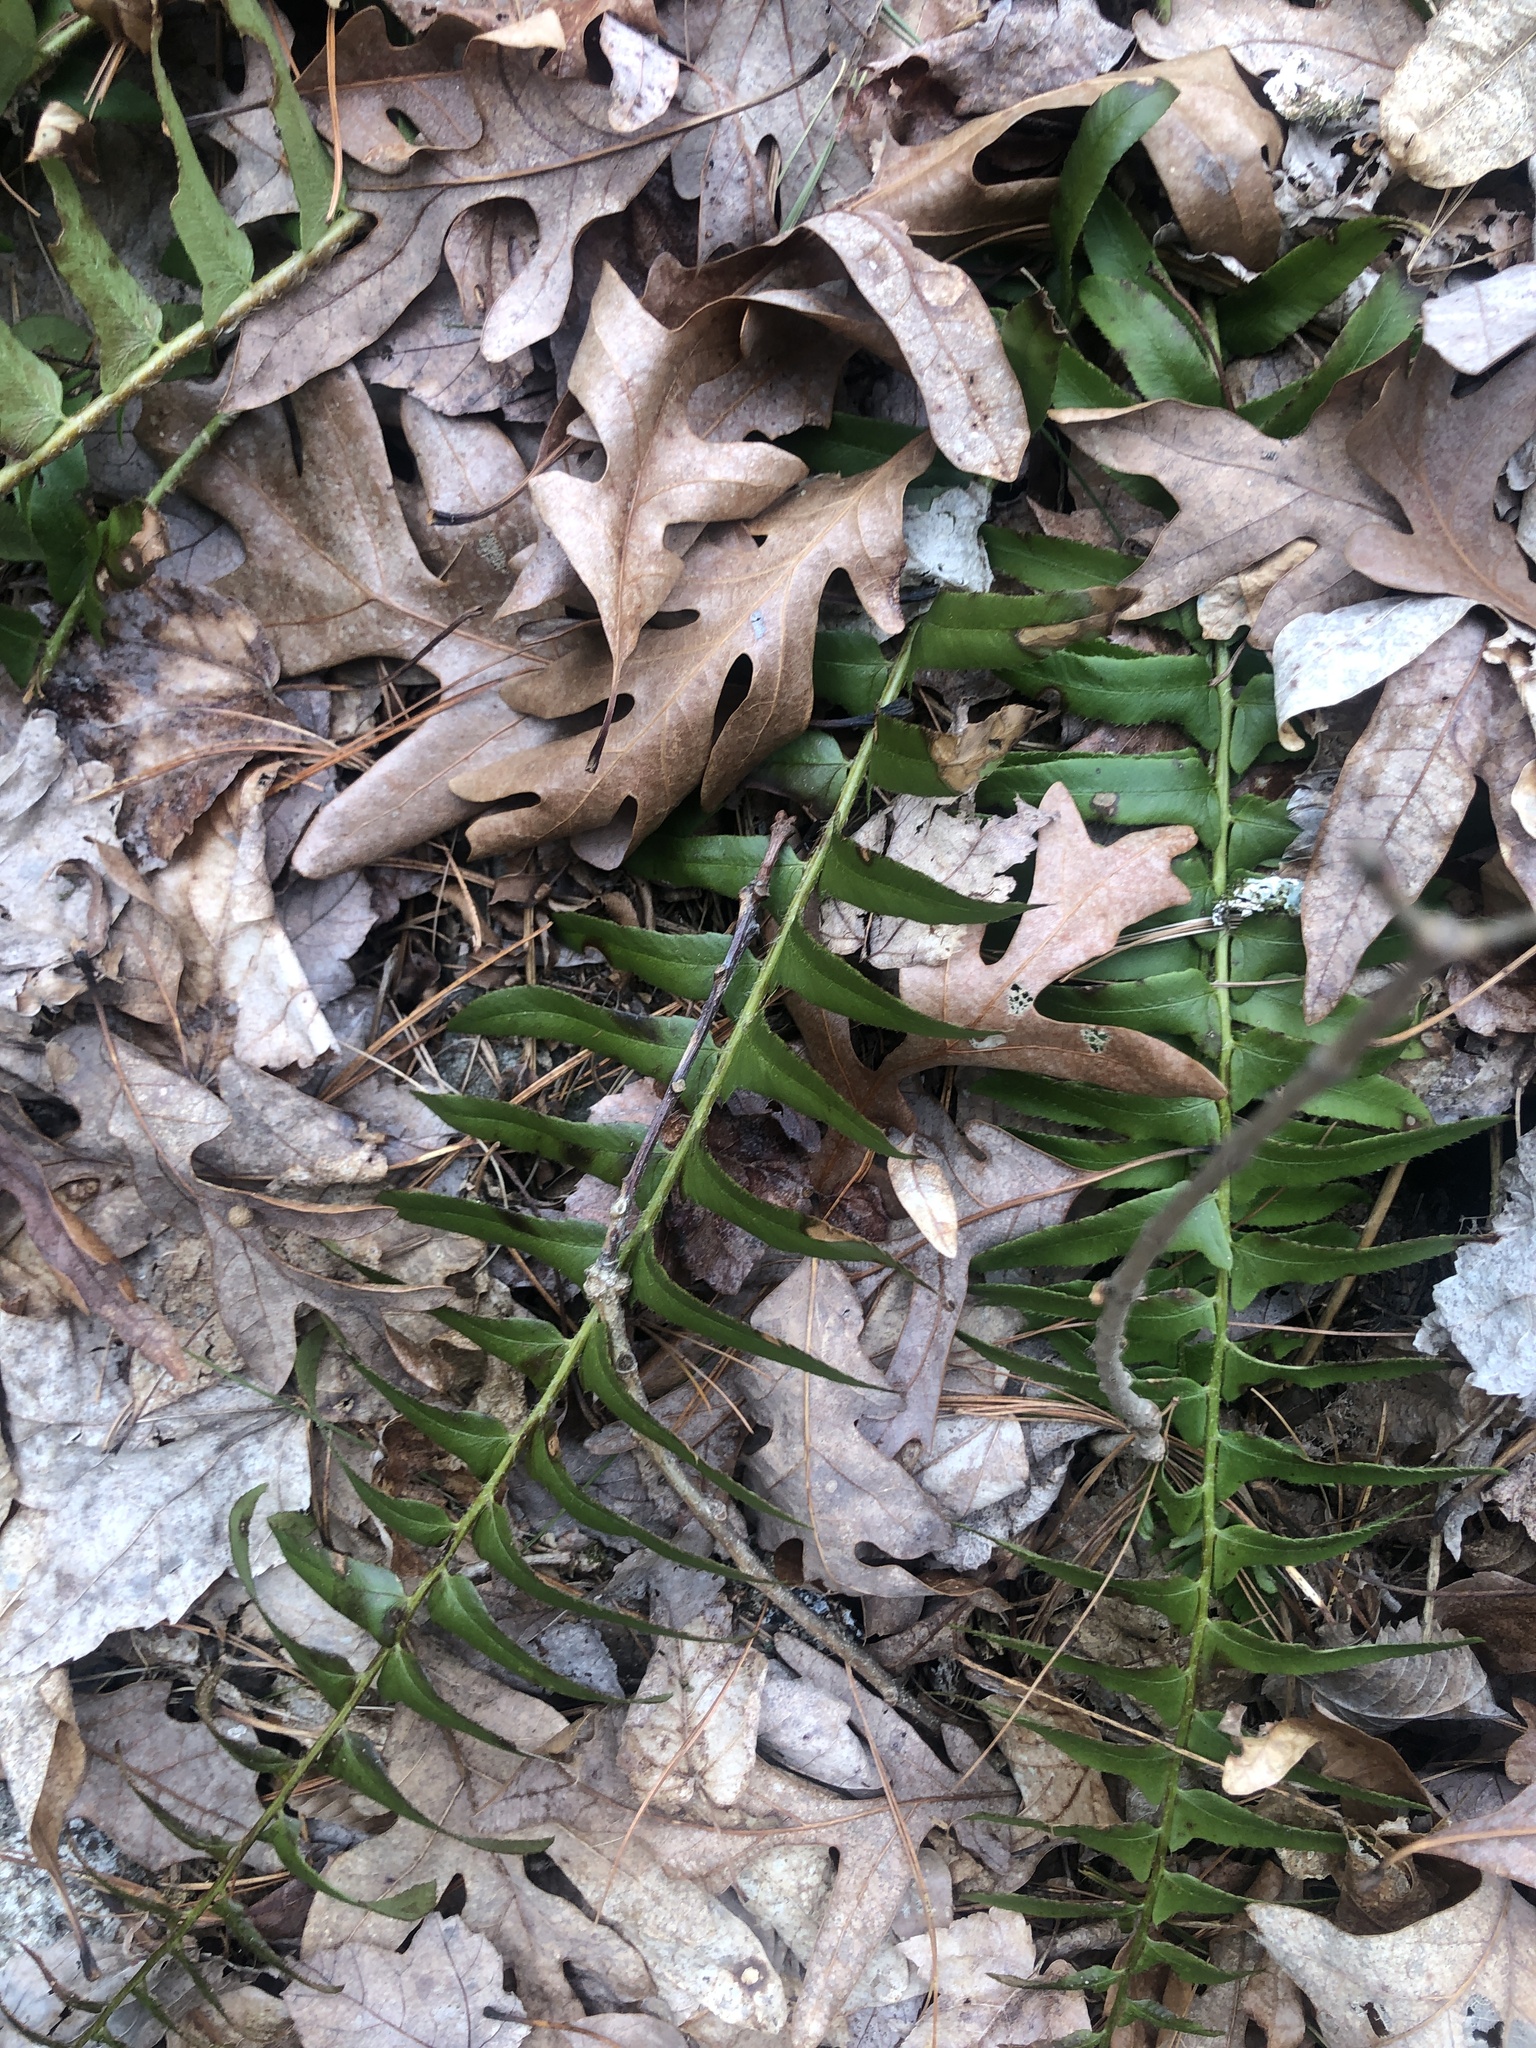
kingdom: Plantae
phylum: Tracheophyta
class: Polypodiopsida
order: Polypodiales
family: Dryopteridaceae
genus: Polystichum
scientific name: Polystichum acrostichoides
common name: Christmas fern
